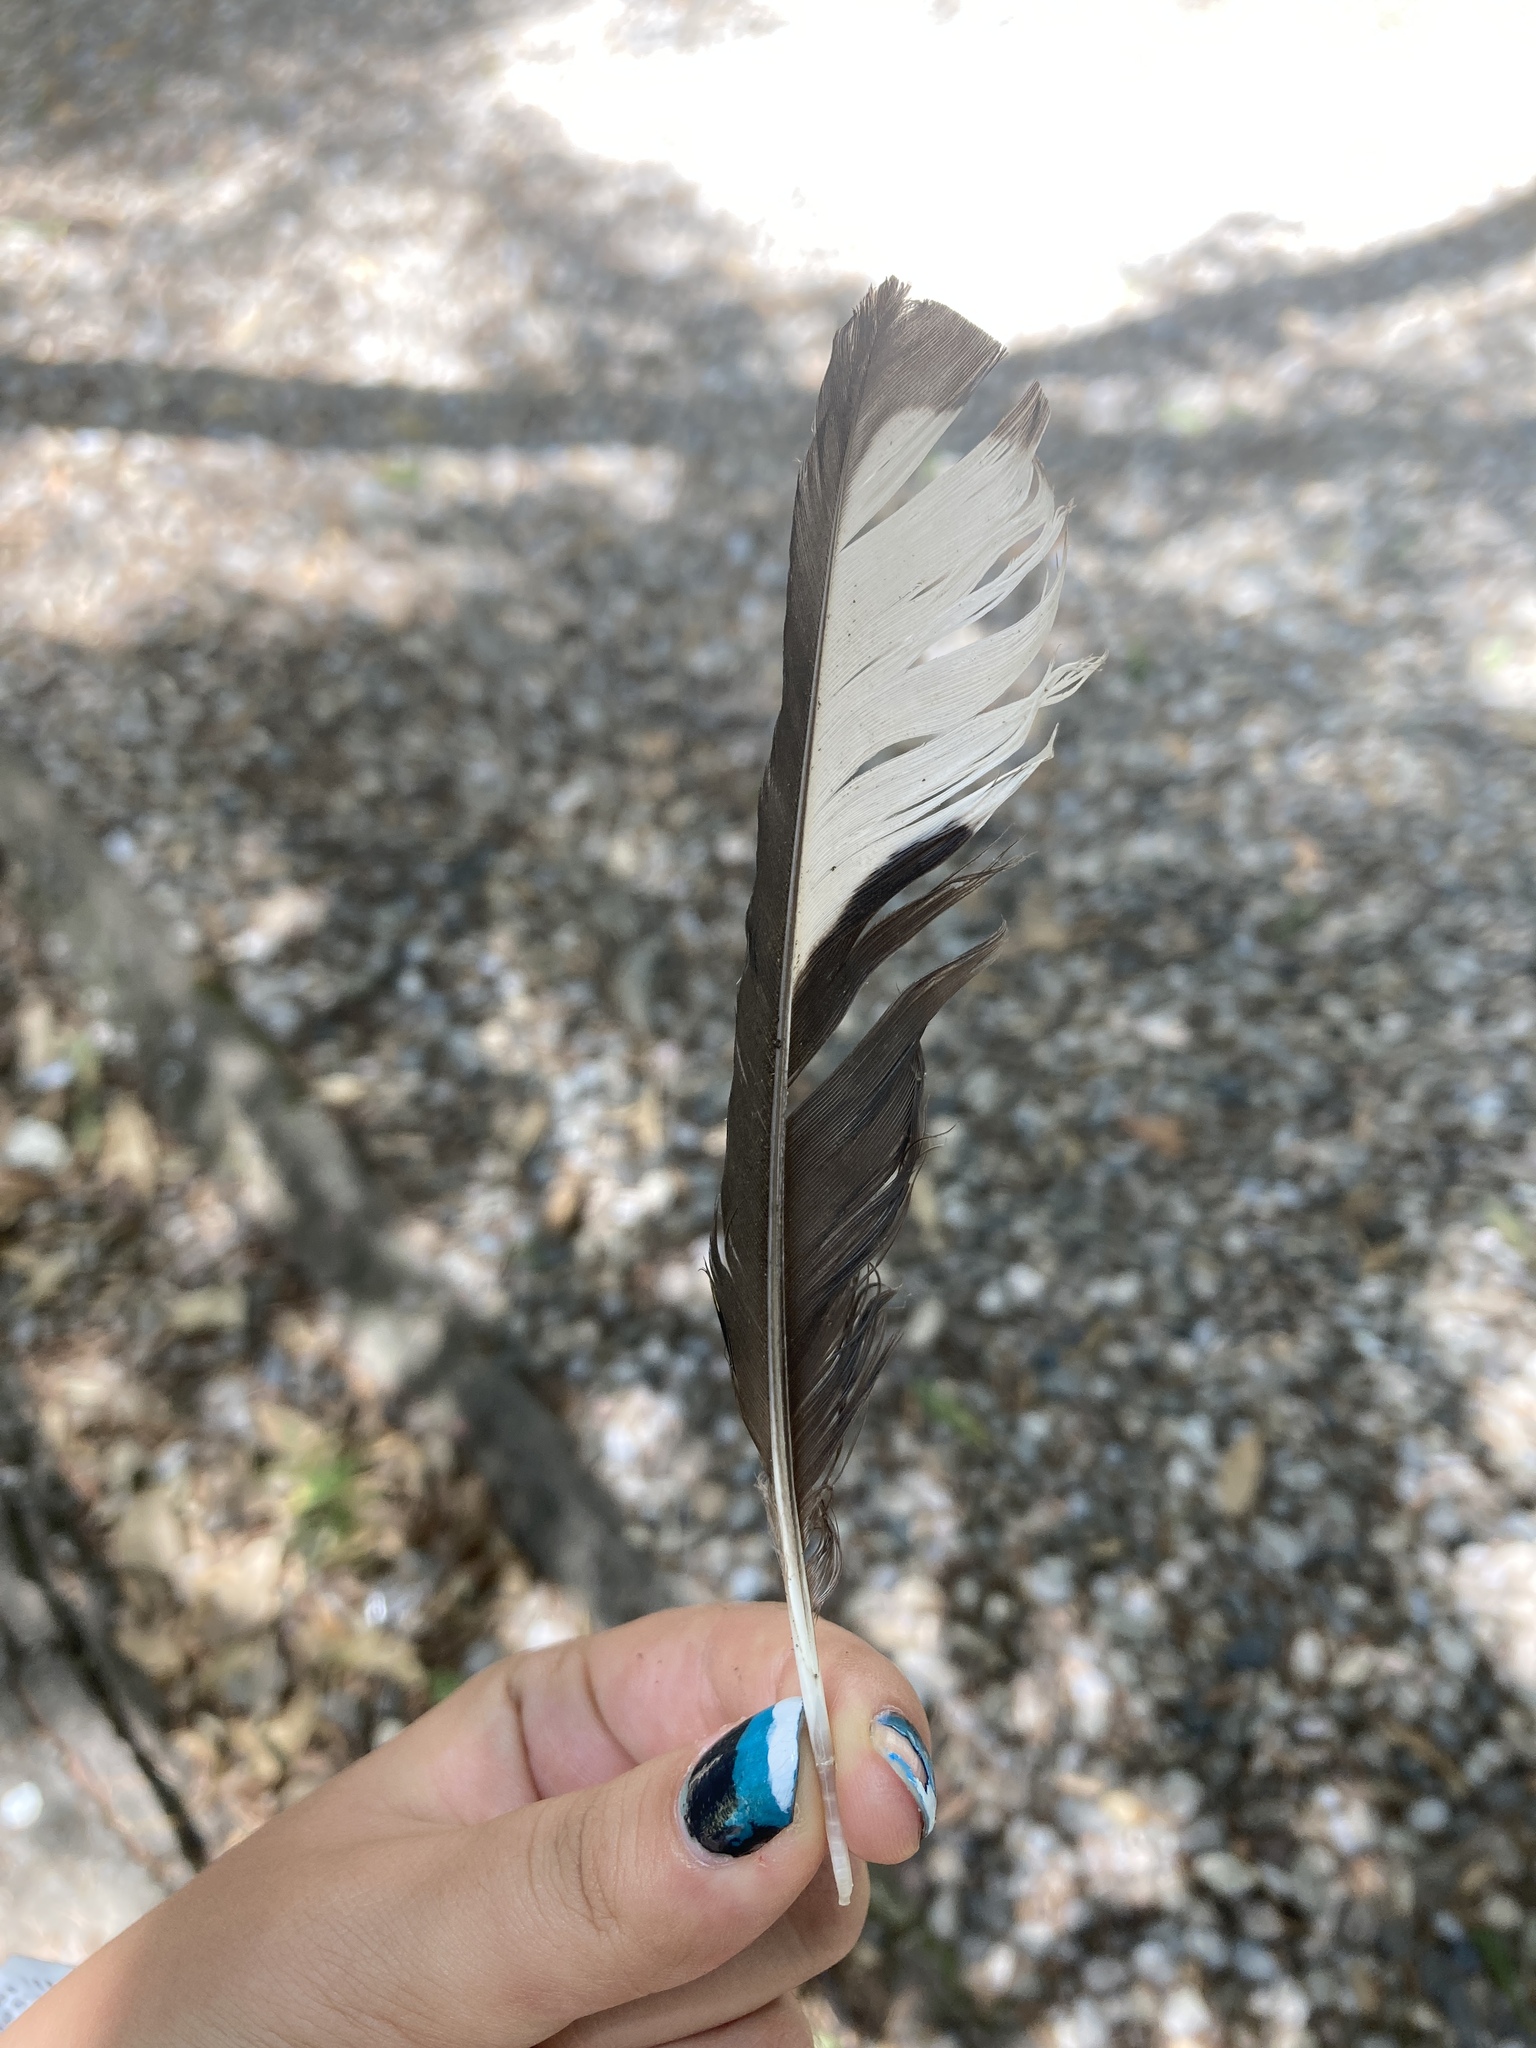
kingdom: Animalia
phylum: Chordata
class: Aves
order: Passeriformes
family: Corvidae
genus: Pica
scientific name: Pica pica
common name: Eurasian magpie
